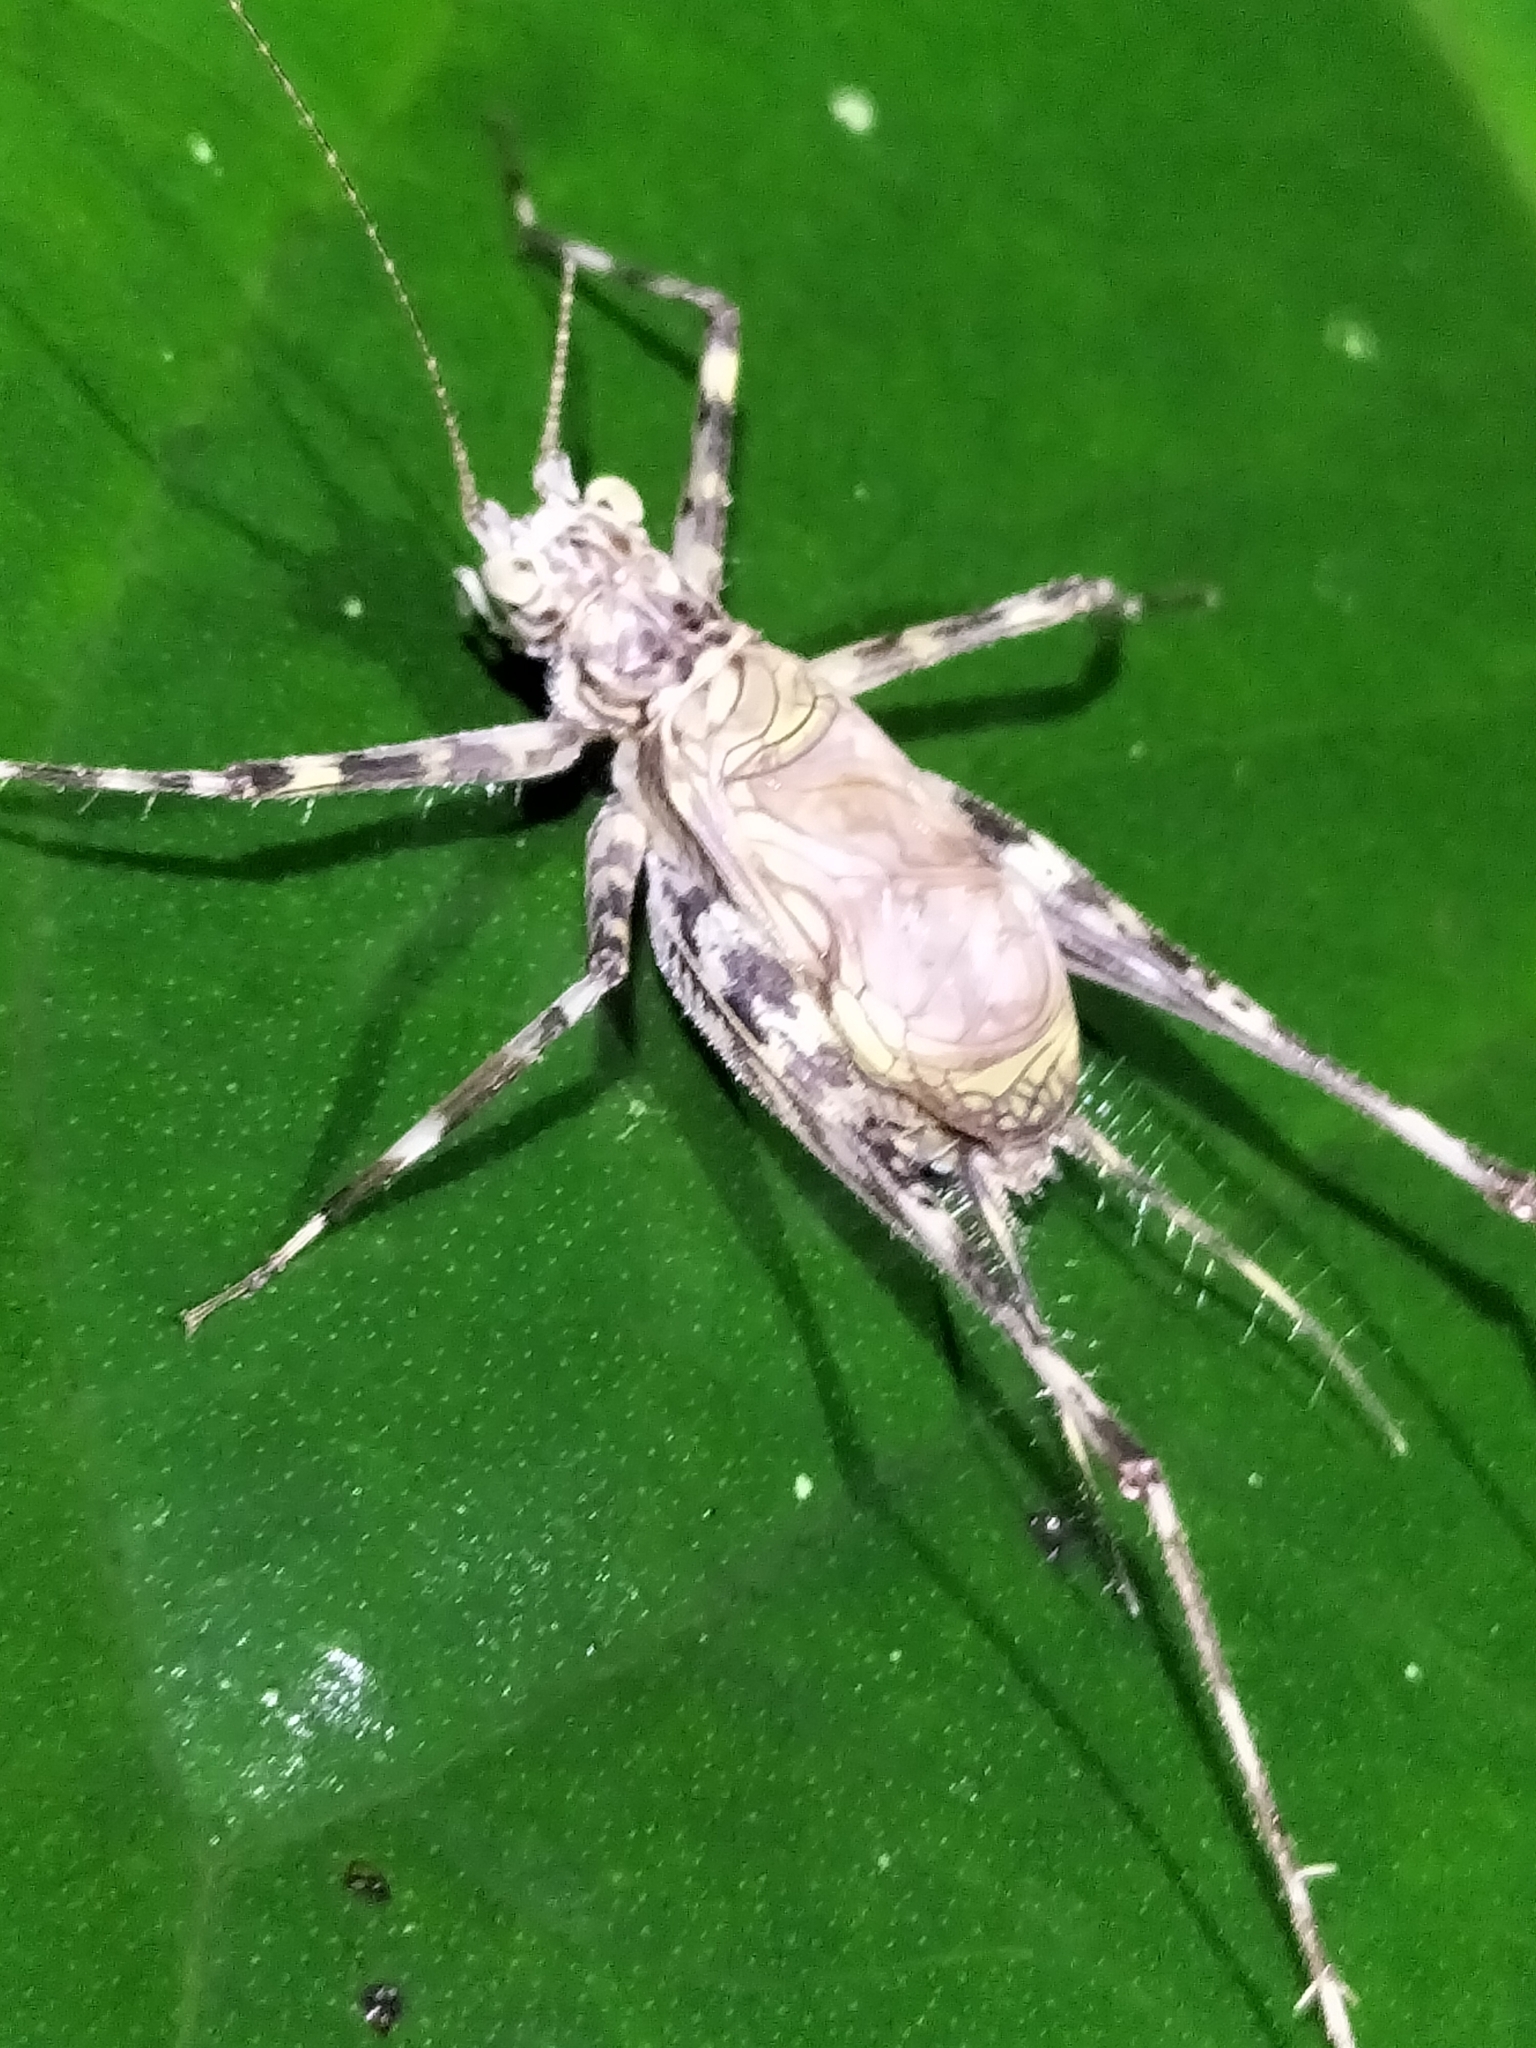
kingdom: Animalia
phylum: Arthropoda
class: Insecta
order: Orthoptera
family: Phalangopsidae
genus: Pseudotrigonidium
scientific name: Pseudotrigonidium australis
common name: Kuranda tree runner
